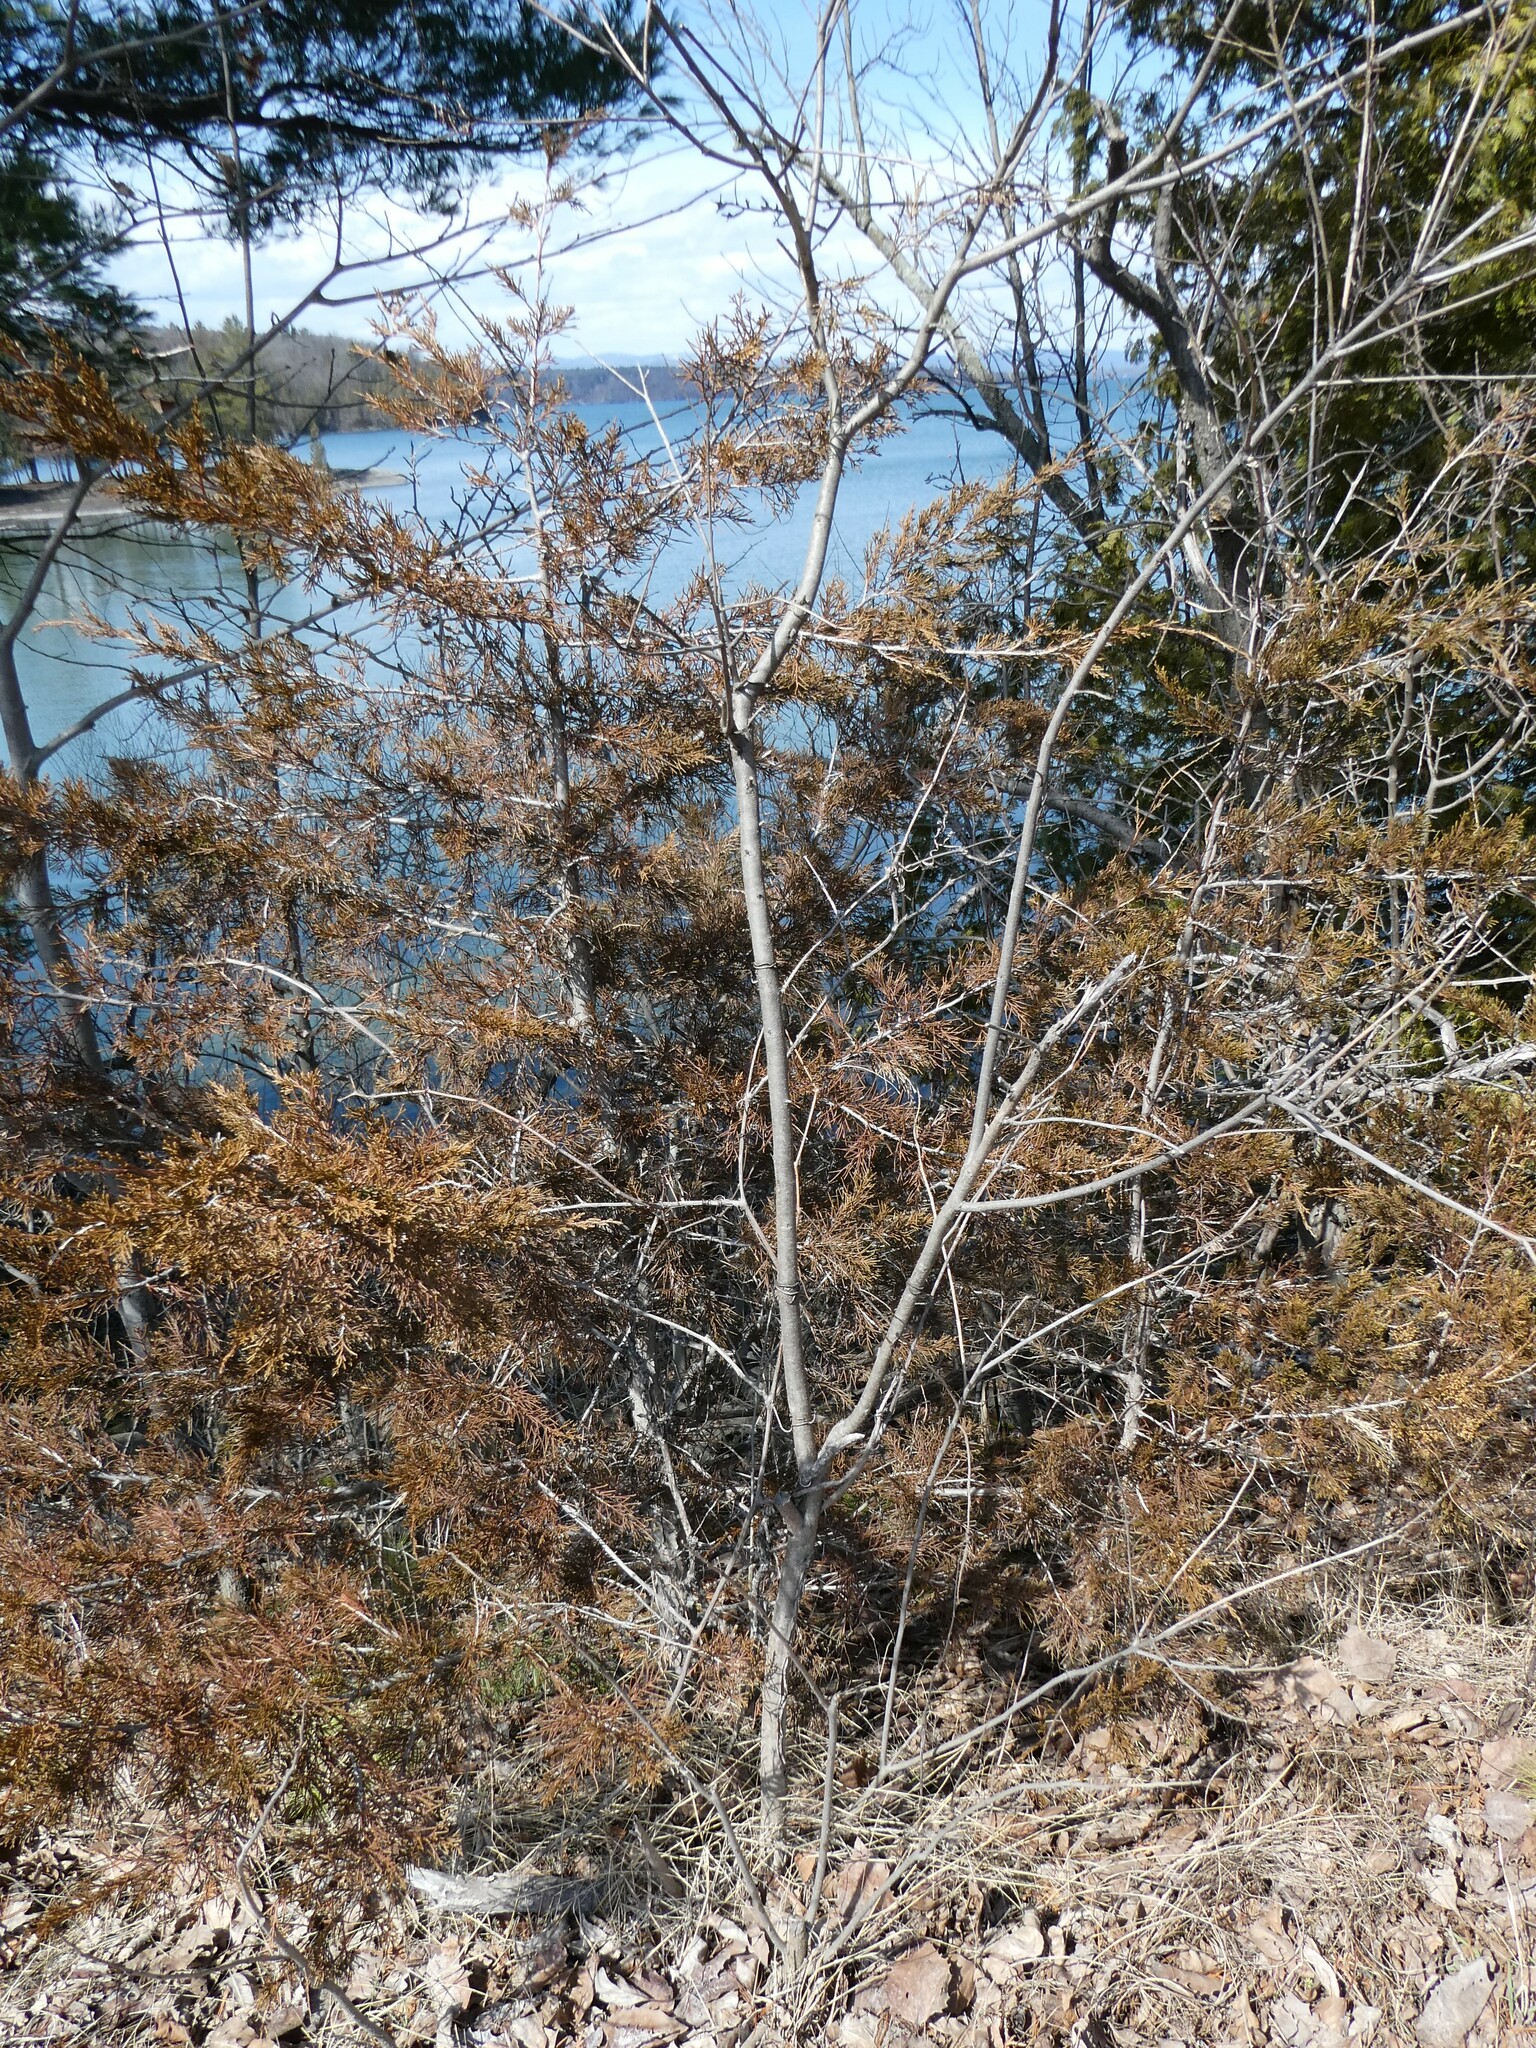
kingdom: Plantae
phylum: Tracheophyta
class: Magnoliopsida
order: Fabales
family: Fabaceae
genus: Amorpha
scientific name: Amorpha fruticosa
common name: False indigo
